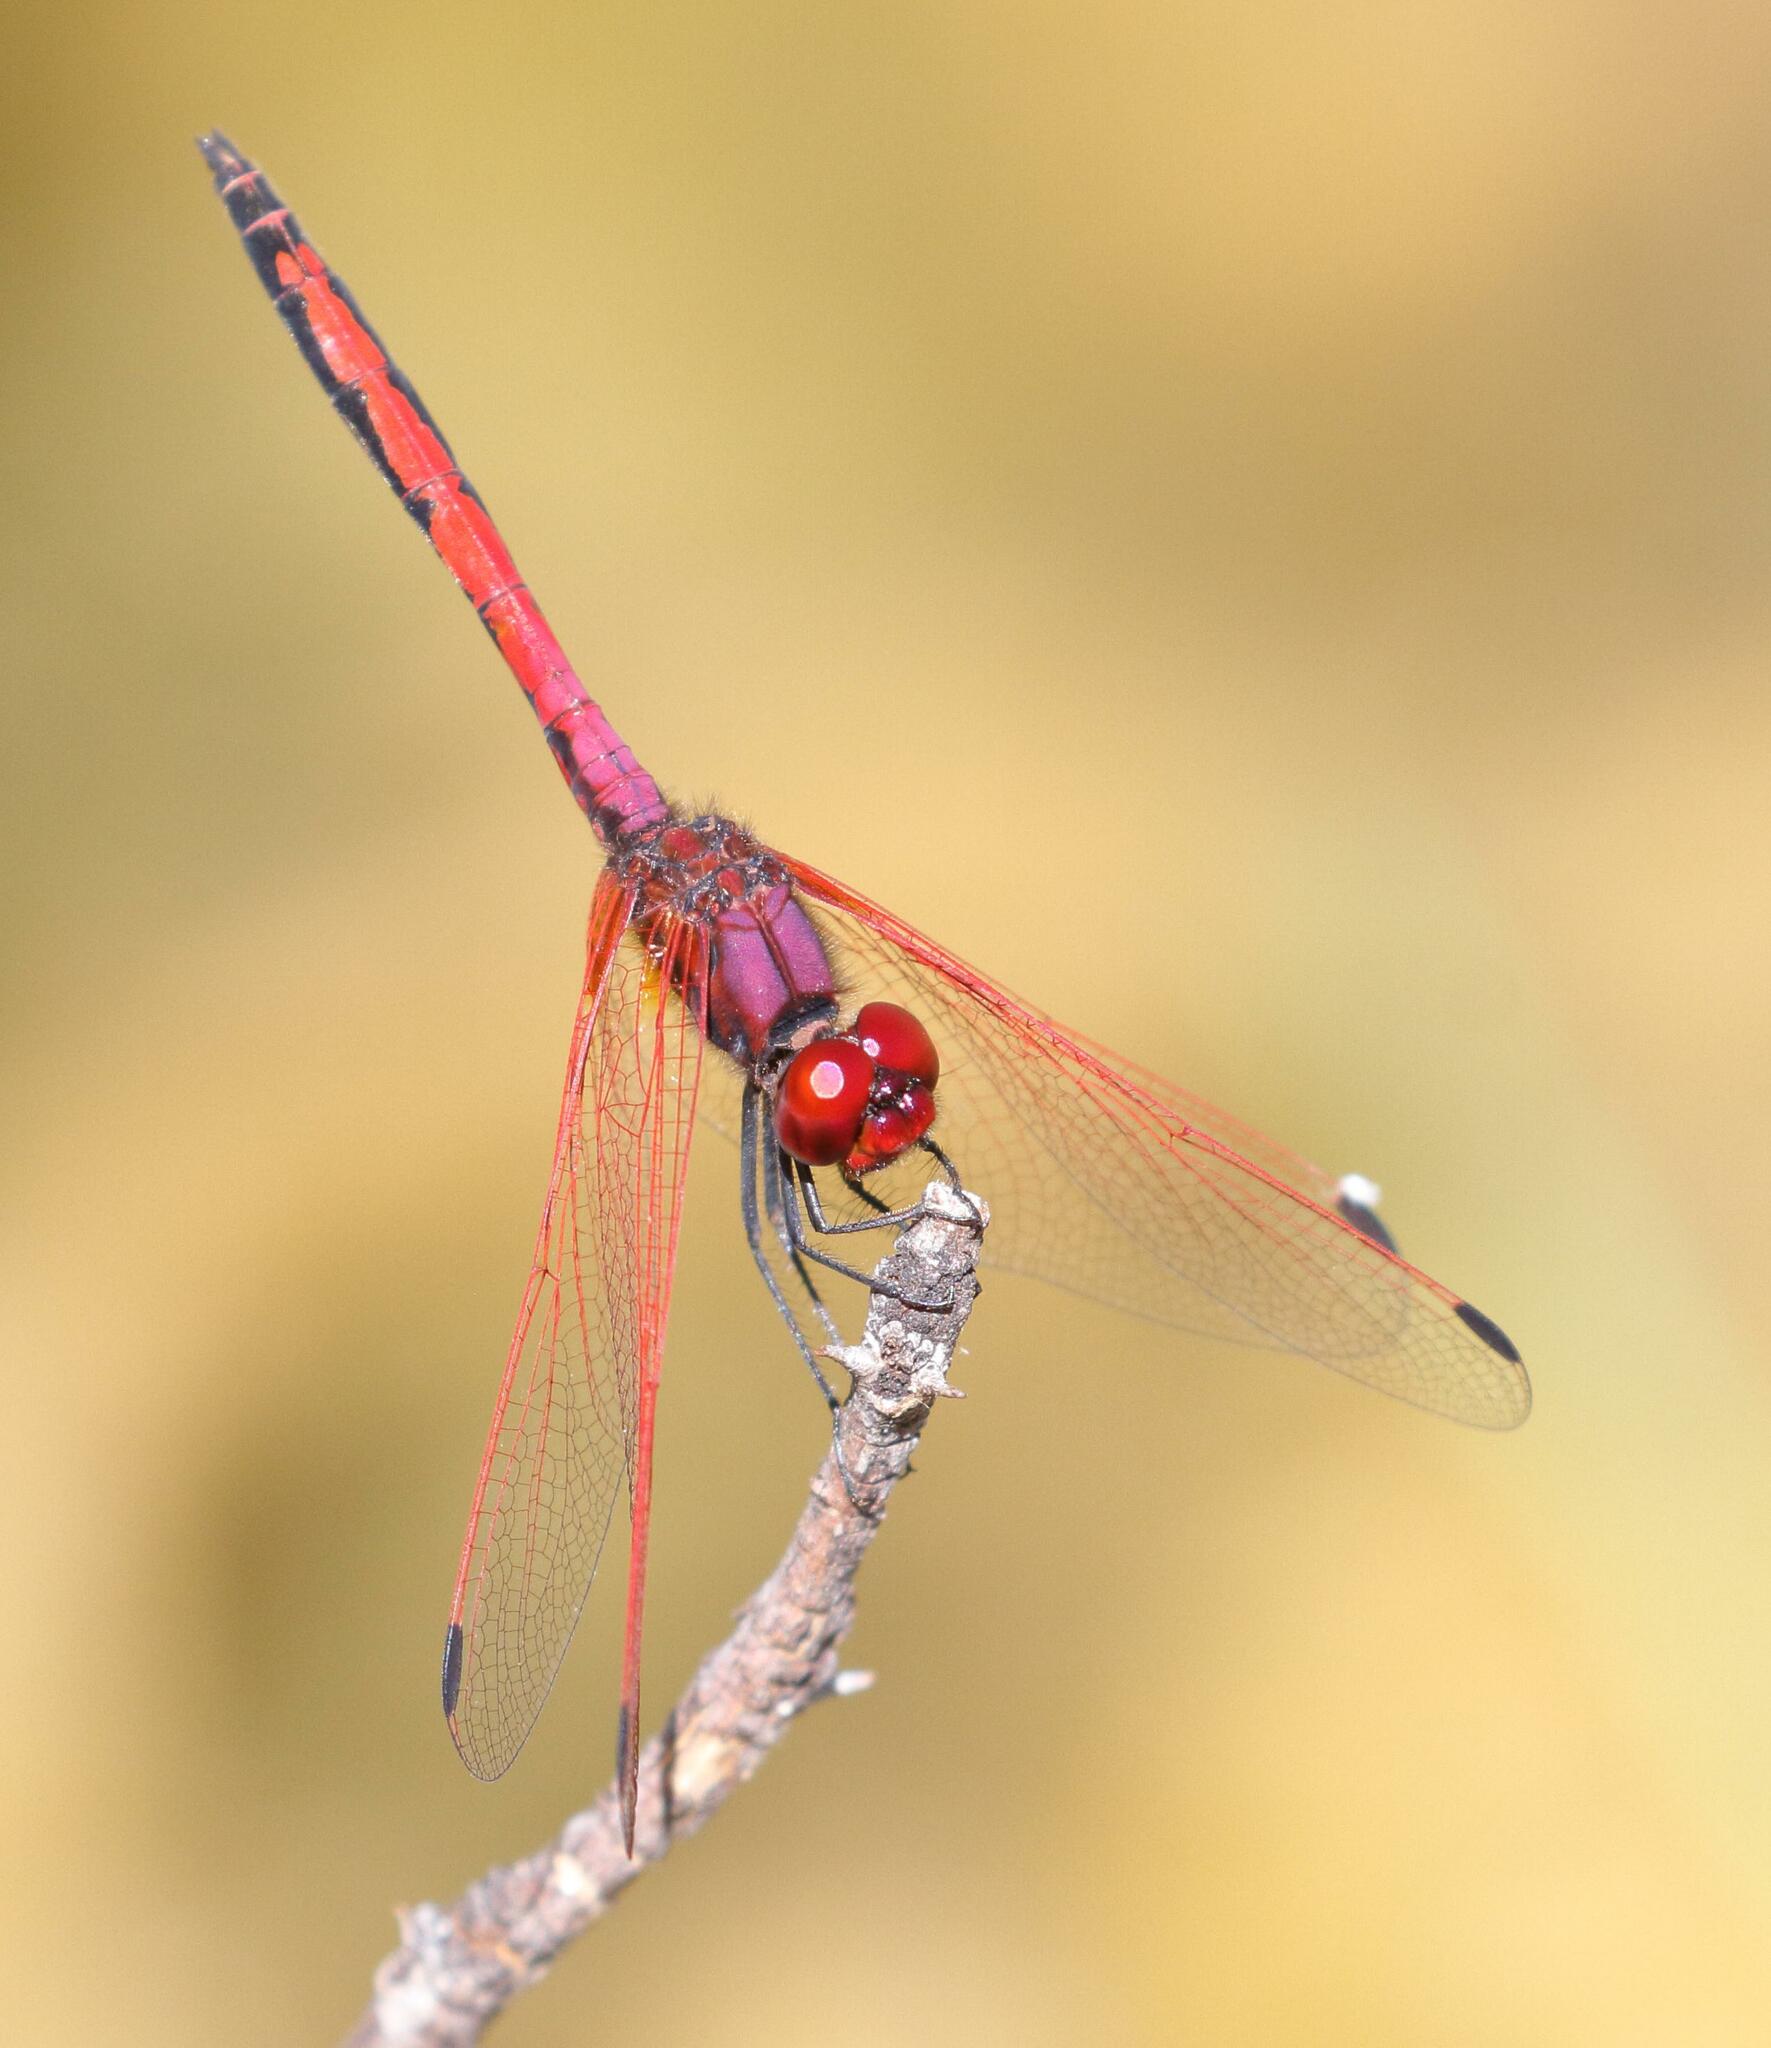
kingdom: Animalia
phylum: Arthropoda
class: Insecta
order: Odonata
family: Libellulidae
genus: Trithemis
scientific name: Trithemis arteriosa
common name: Red-veined dropwing
